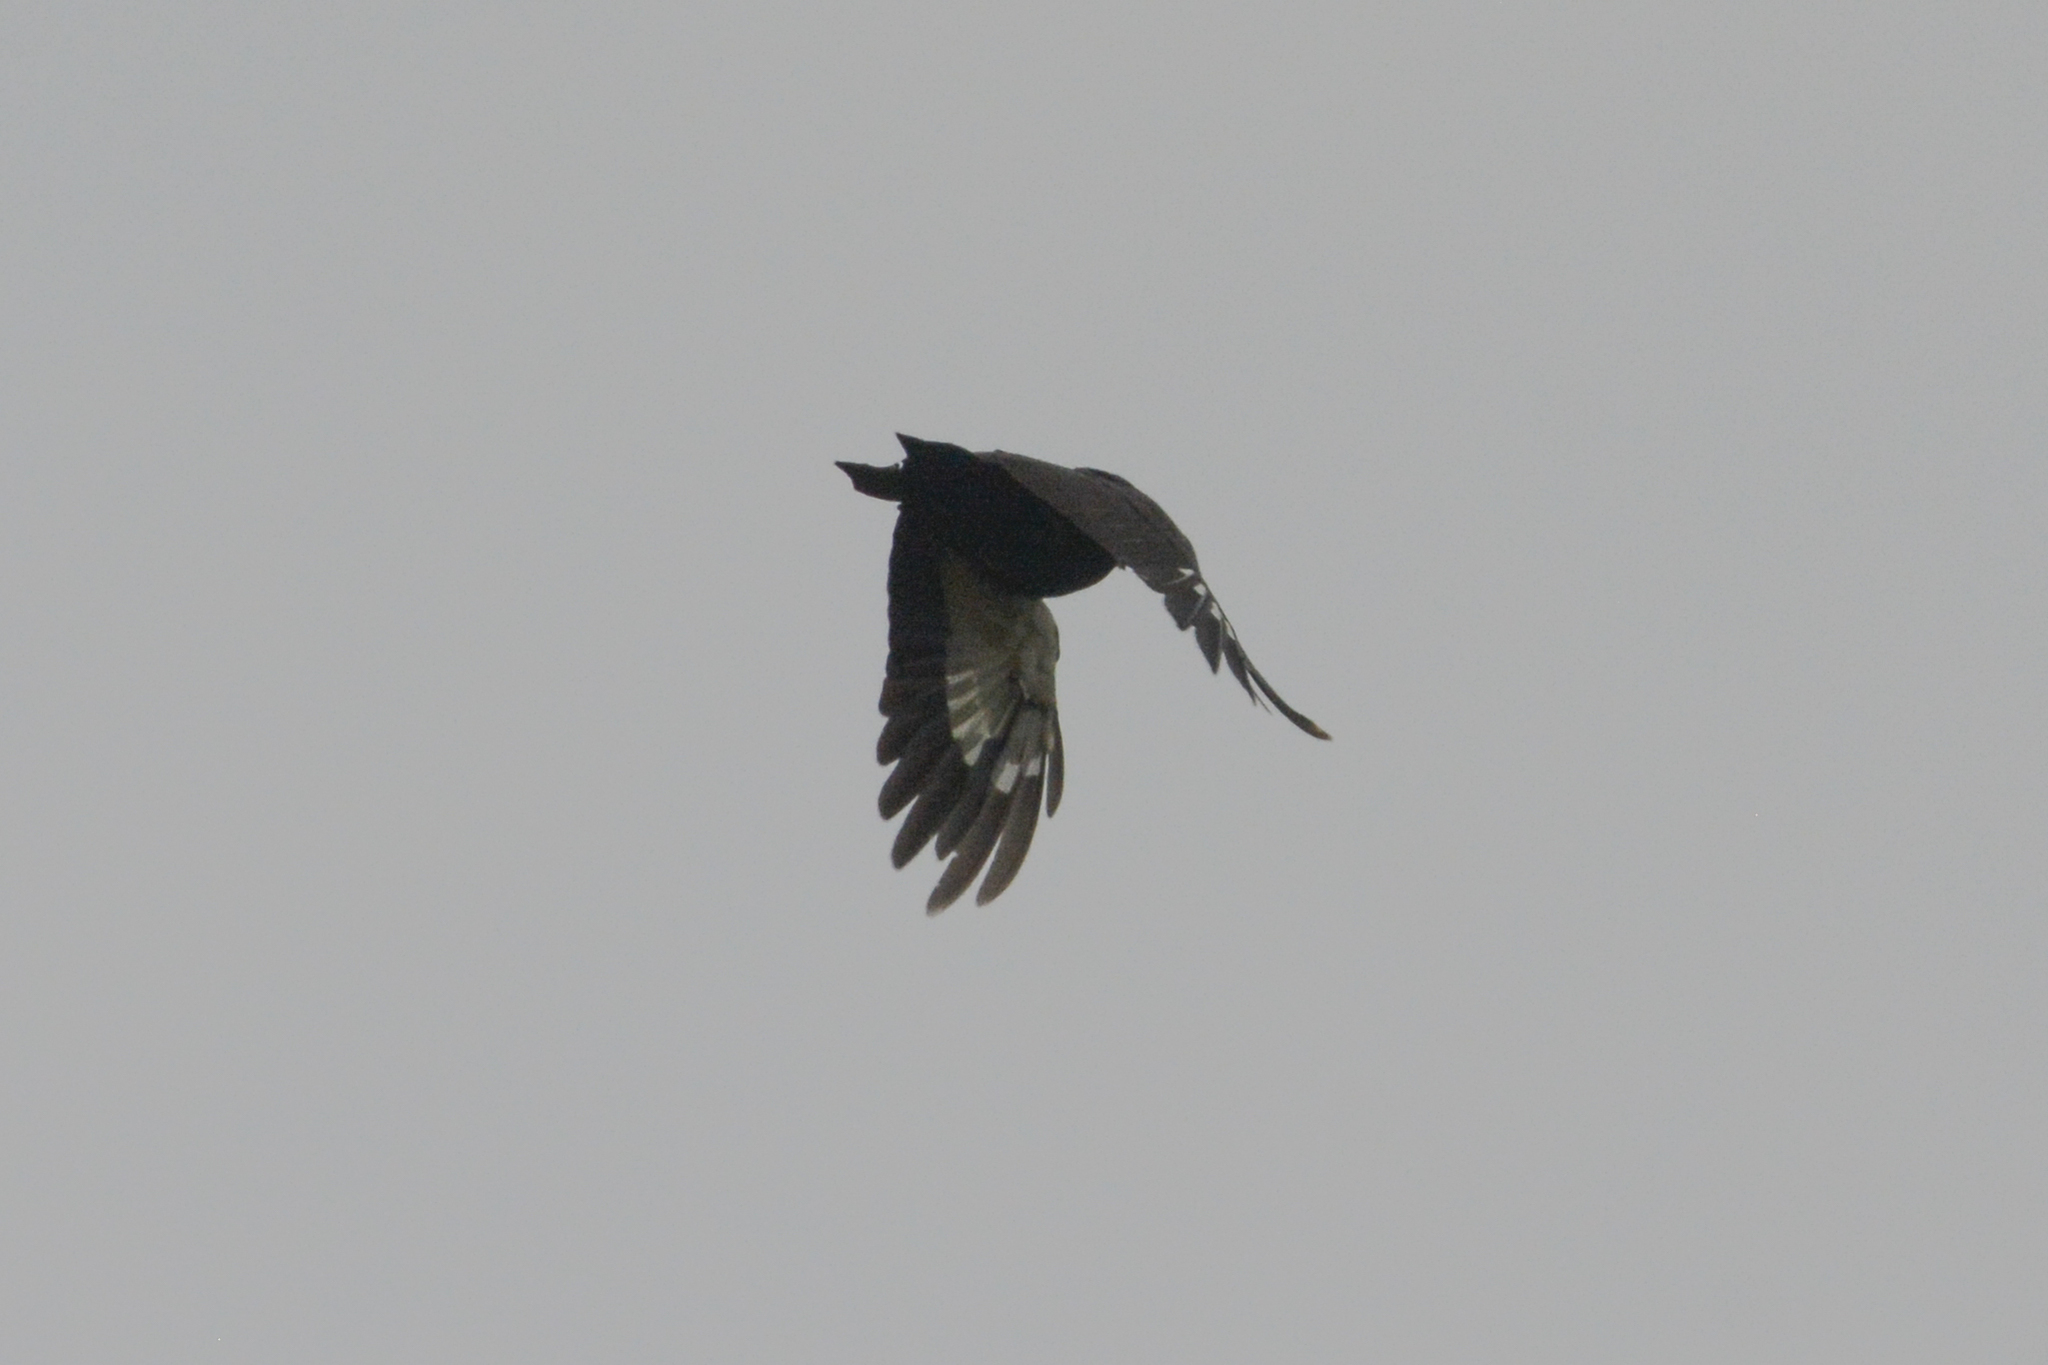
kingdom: Animalia
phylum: Chordata
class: Aves
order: Piciformes
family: Picidae
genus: Dryocopus
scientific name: Dryocopus pileatus
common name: Pileated woodpecker
